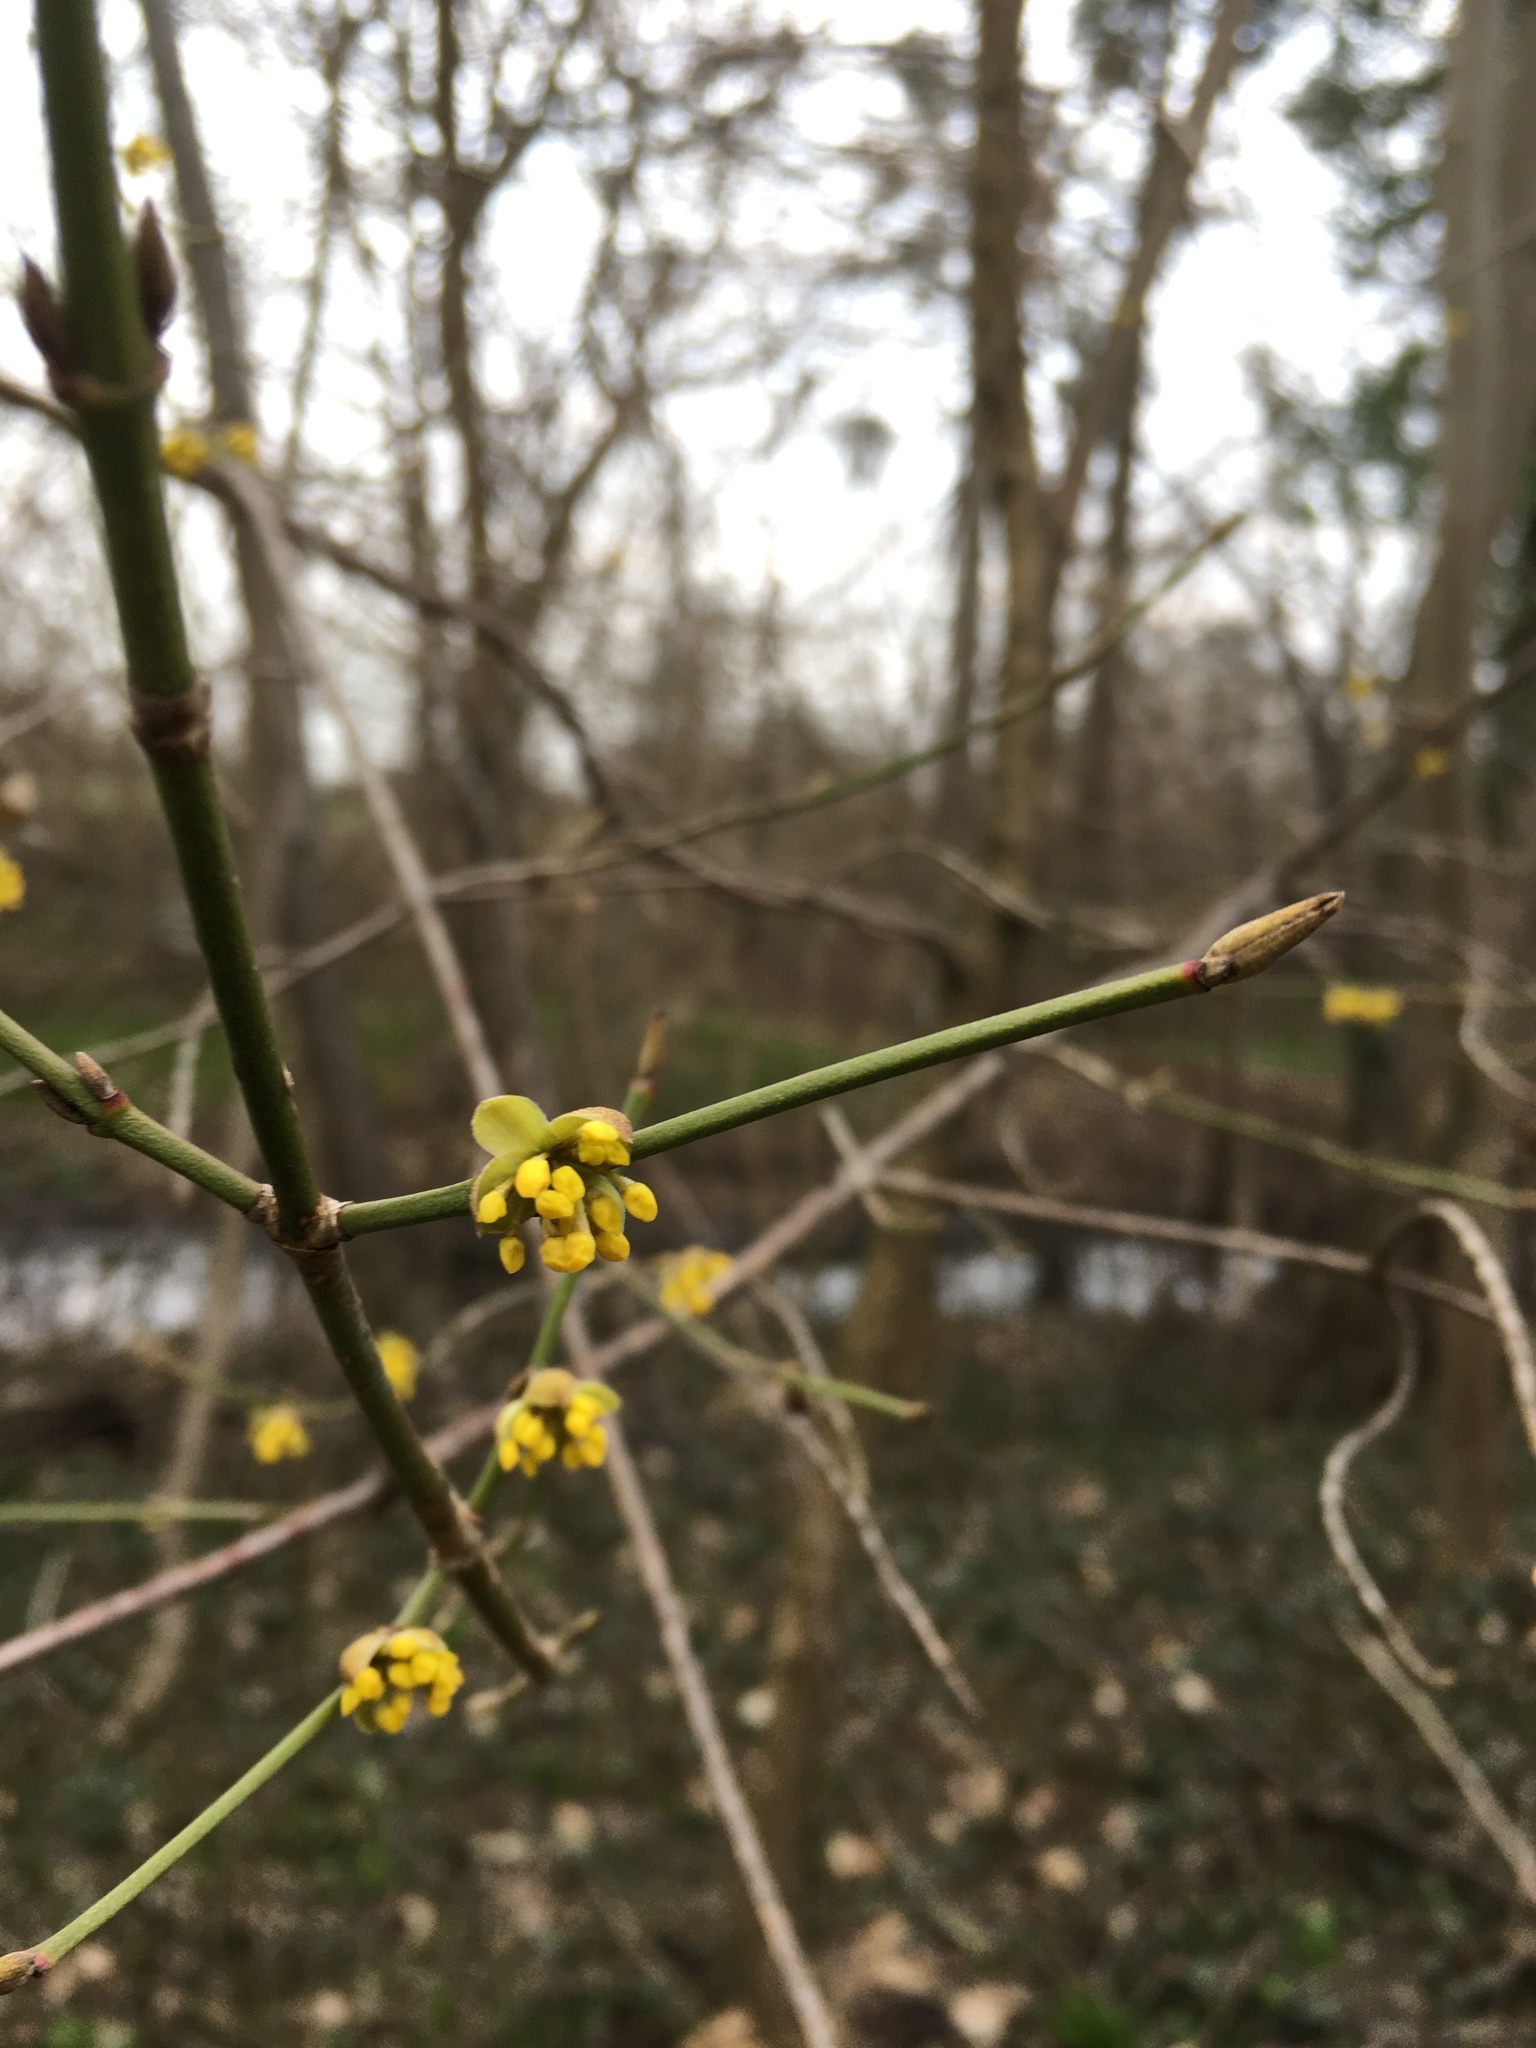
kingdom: Plantae
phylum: Tracheophyta
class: Magnoliopsida
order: Cornales
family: Cornaceae
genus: Cornus
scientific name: Cornus mas
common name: Cornelian-cherry
